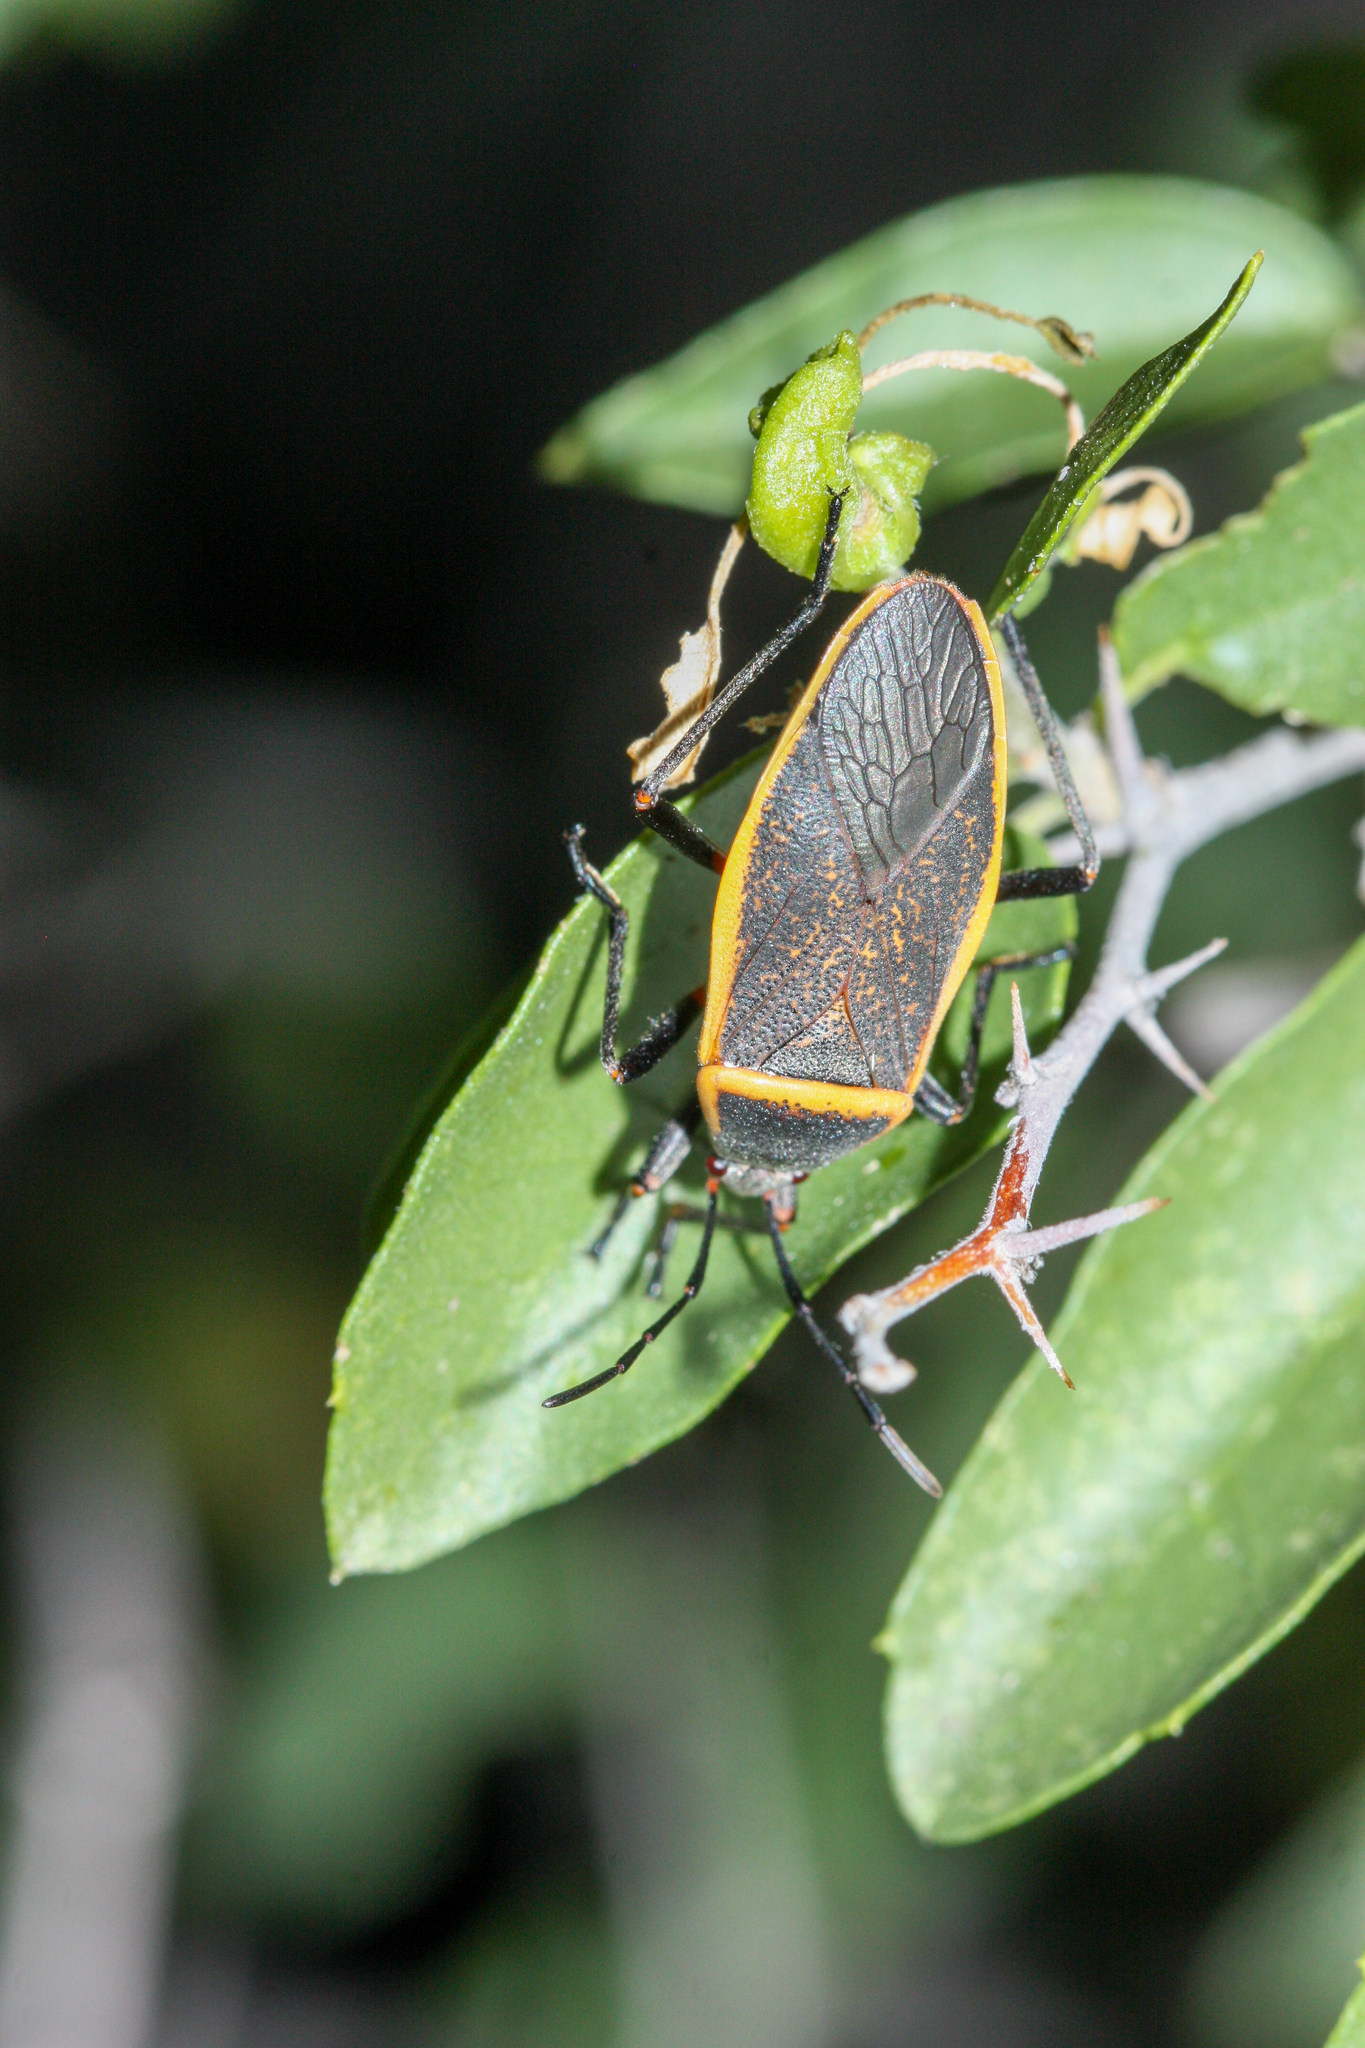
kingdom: Animalia
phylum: Arthropoda
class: Insecta
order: Hemiptera
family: Largidae
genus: Largus
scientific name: Largus
